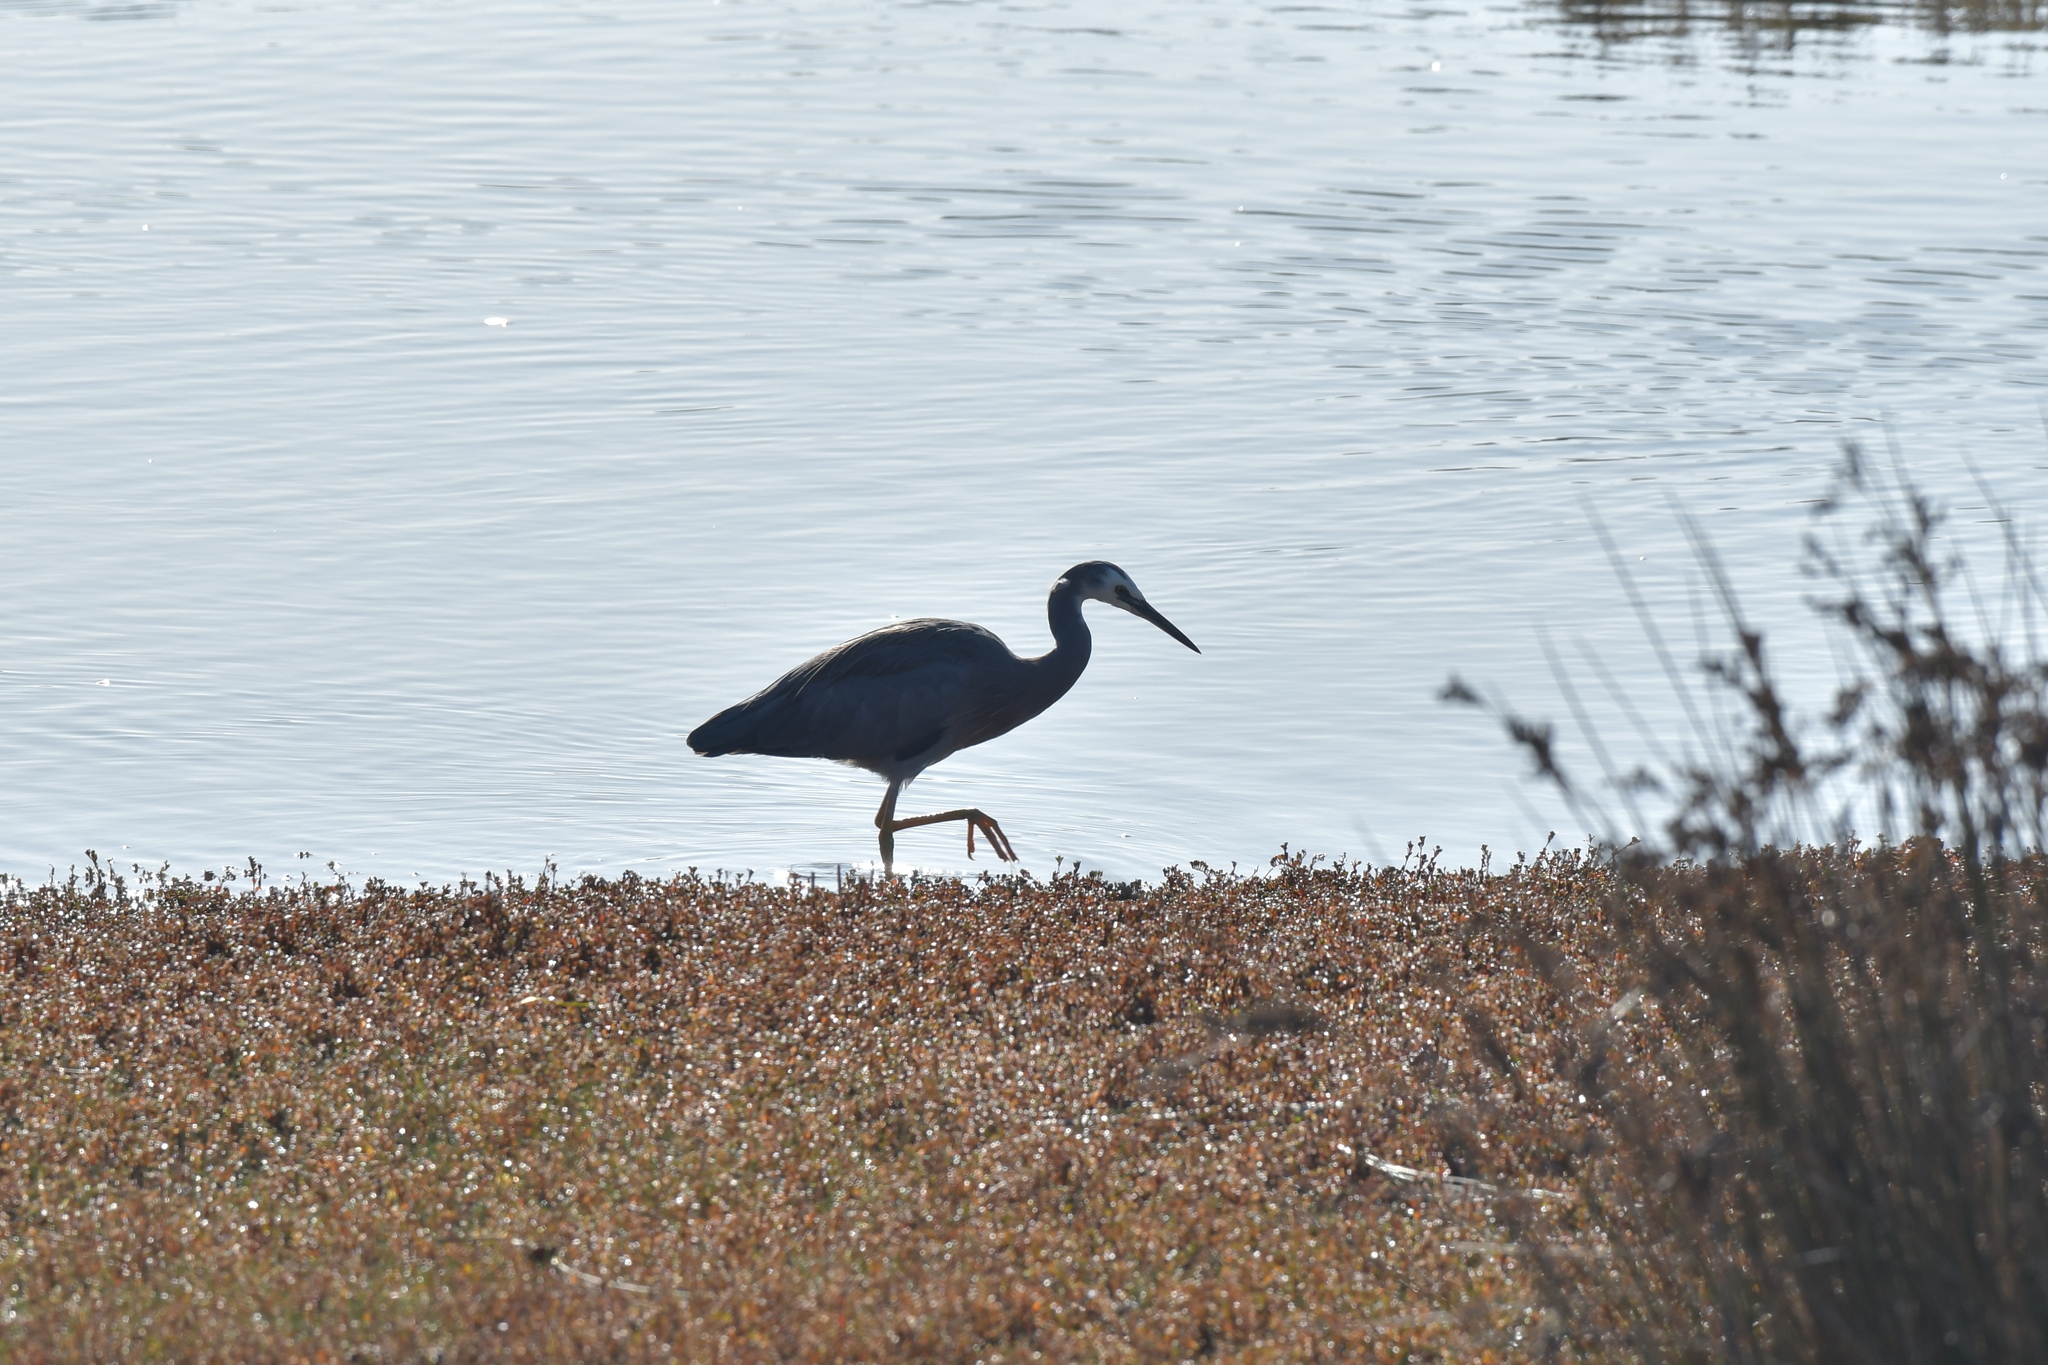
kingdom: Animalia
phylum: Chordata
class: Aves
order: Pelecaniformes
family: Ardeidae
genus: Egretta
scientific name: Egretta novaehollandiae
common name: White-faced heron
